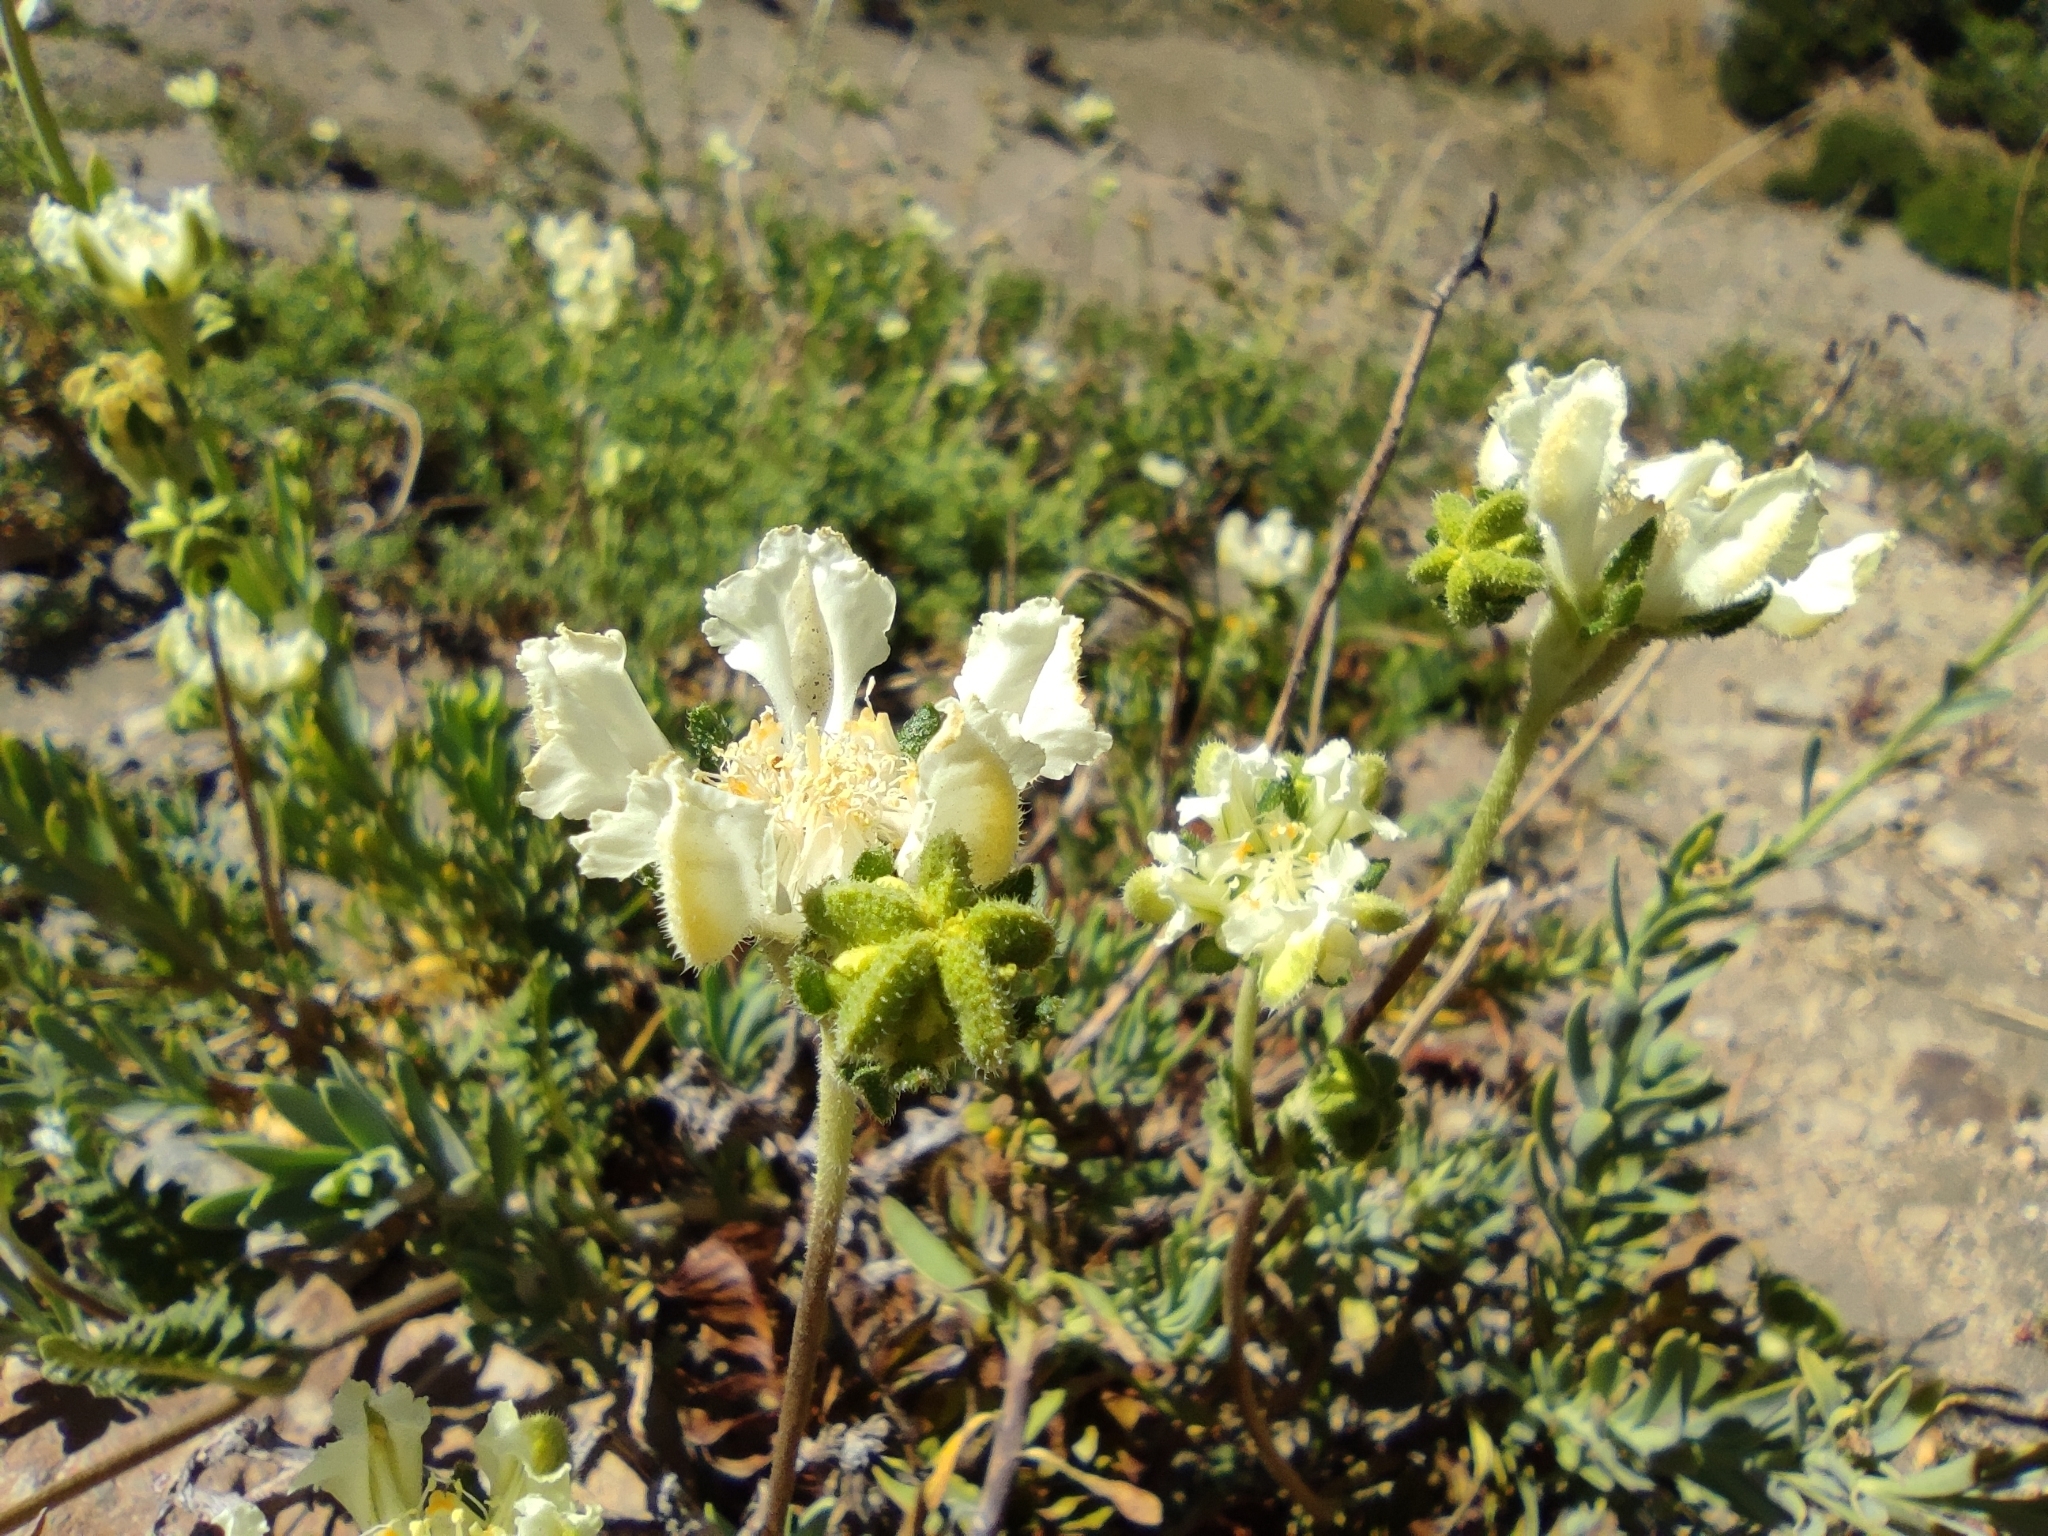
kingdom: Plantae
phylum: Tracheophyta
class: Magnoliopsida
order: Cornales
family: Loasaceae
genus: Pinnasa
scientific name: Pinnasa pinnatifida
